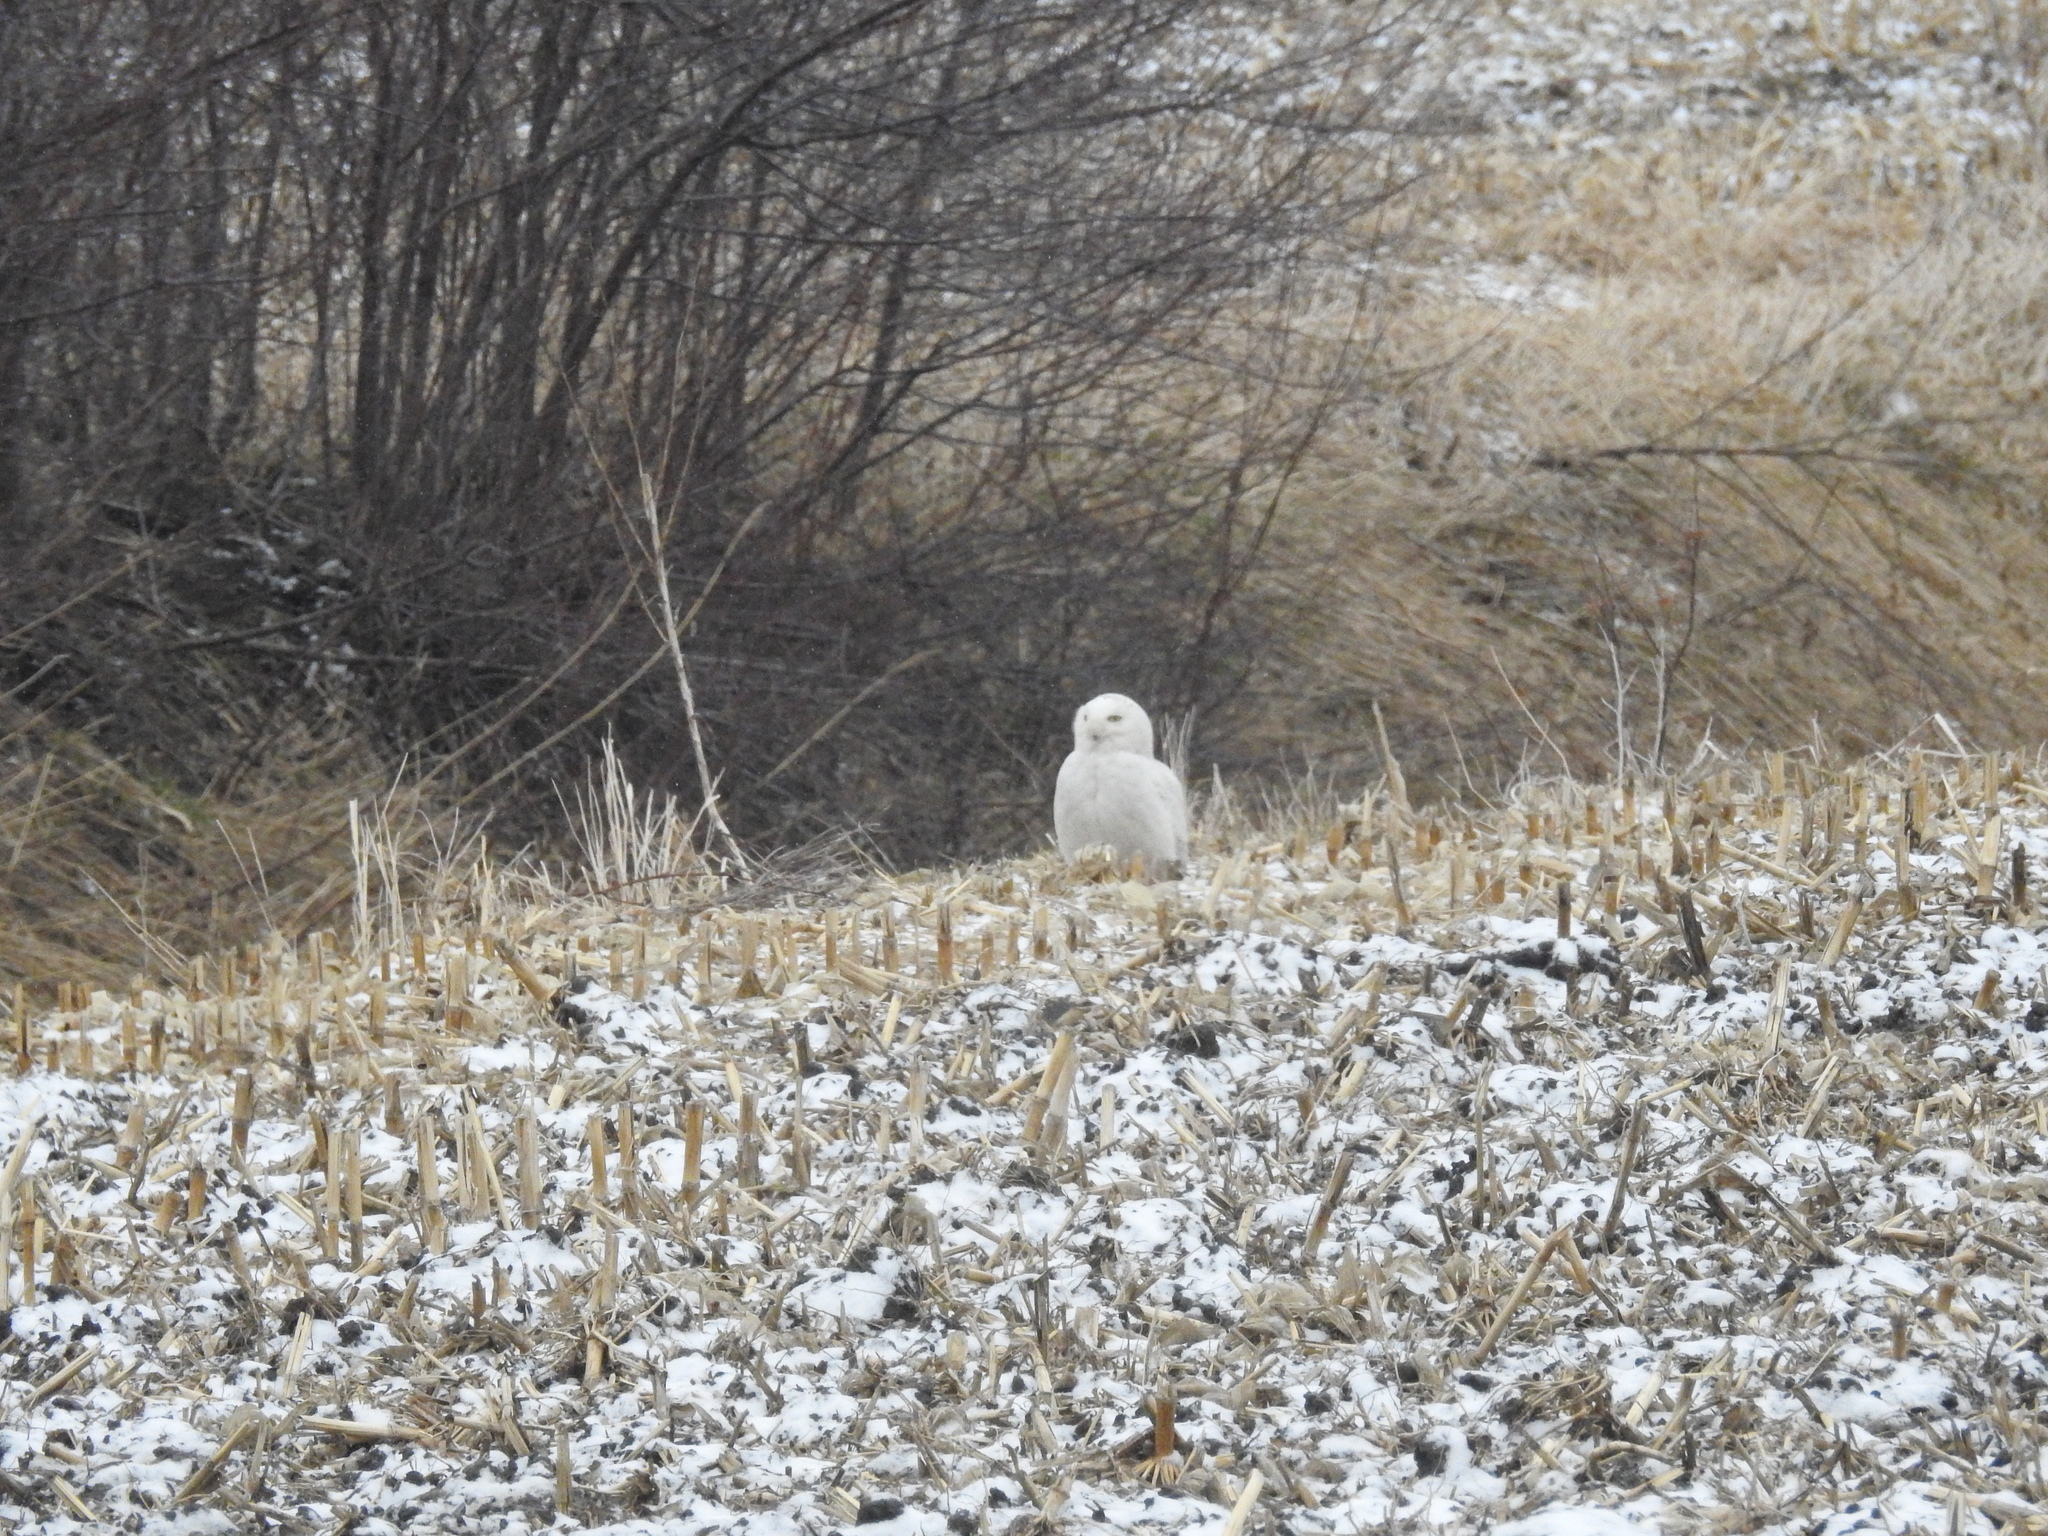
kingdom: Animalia
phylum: Chordata
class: Aves
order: Strigiformes
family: Strigidae
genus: Bubo
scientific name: Bubo scandiacus
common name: Snowy owl
